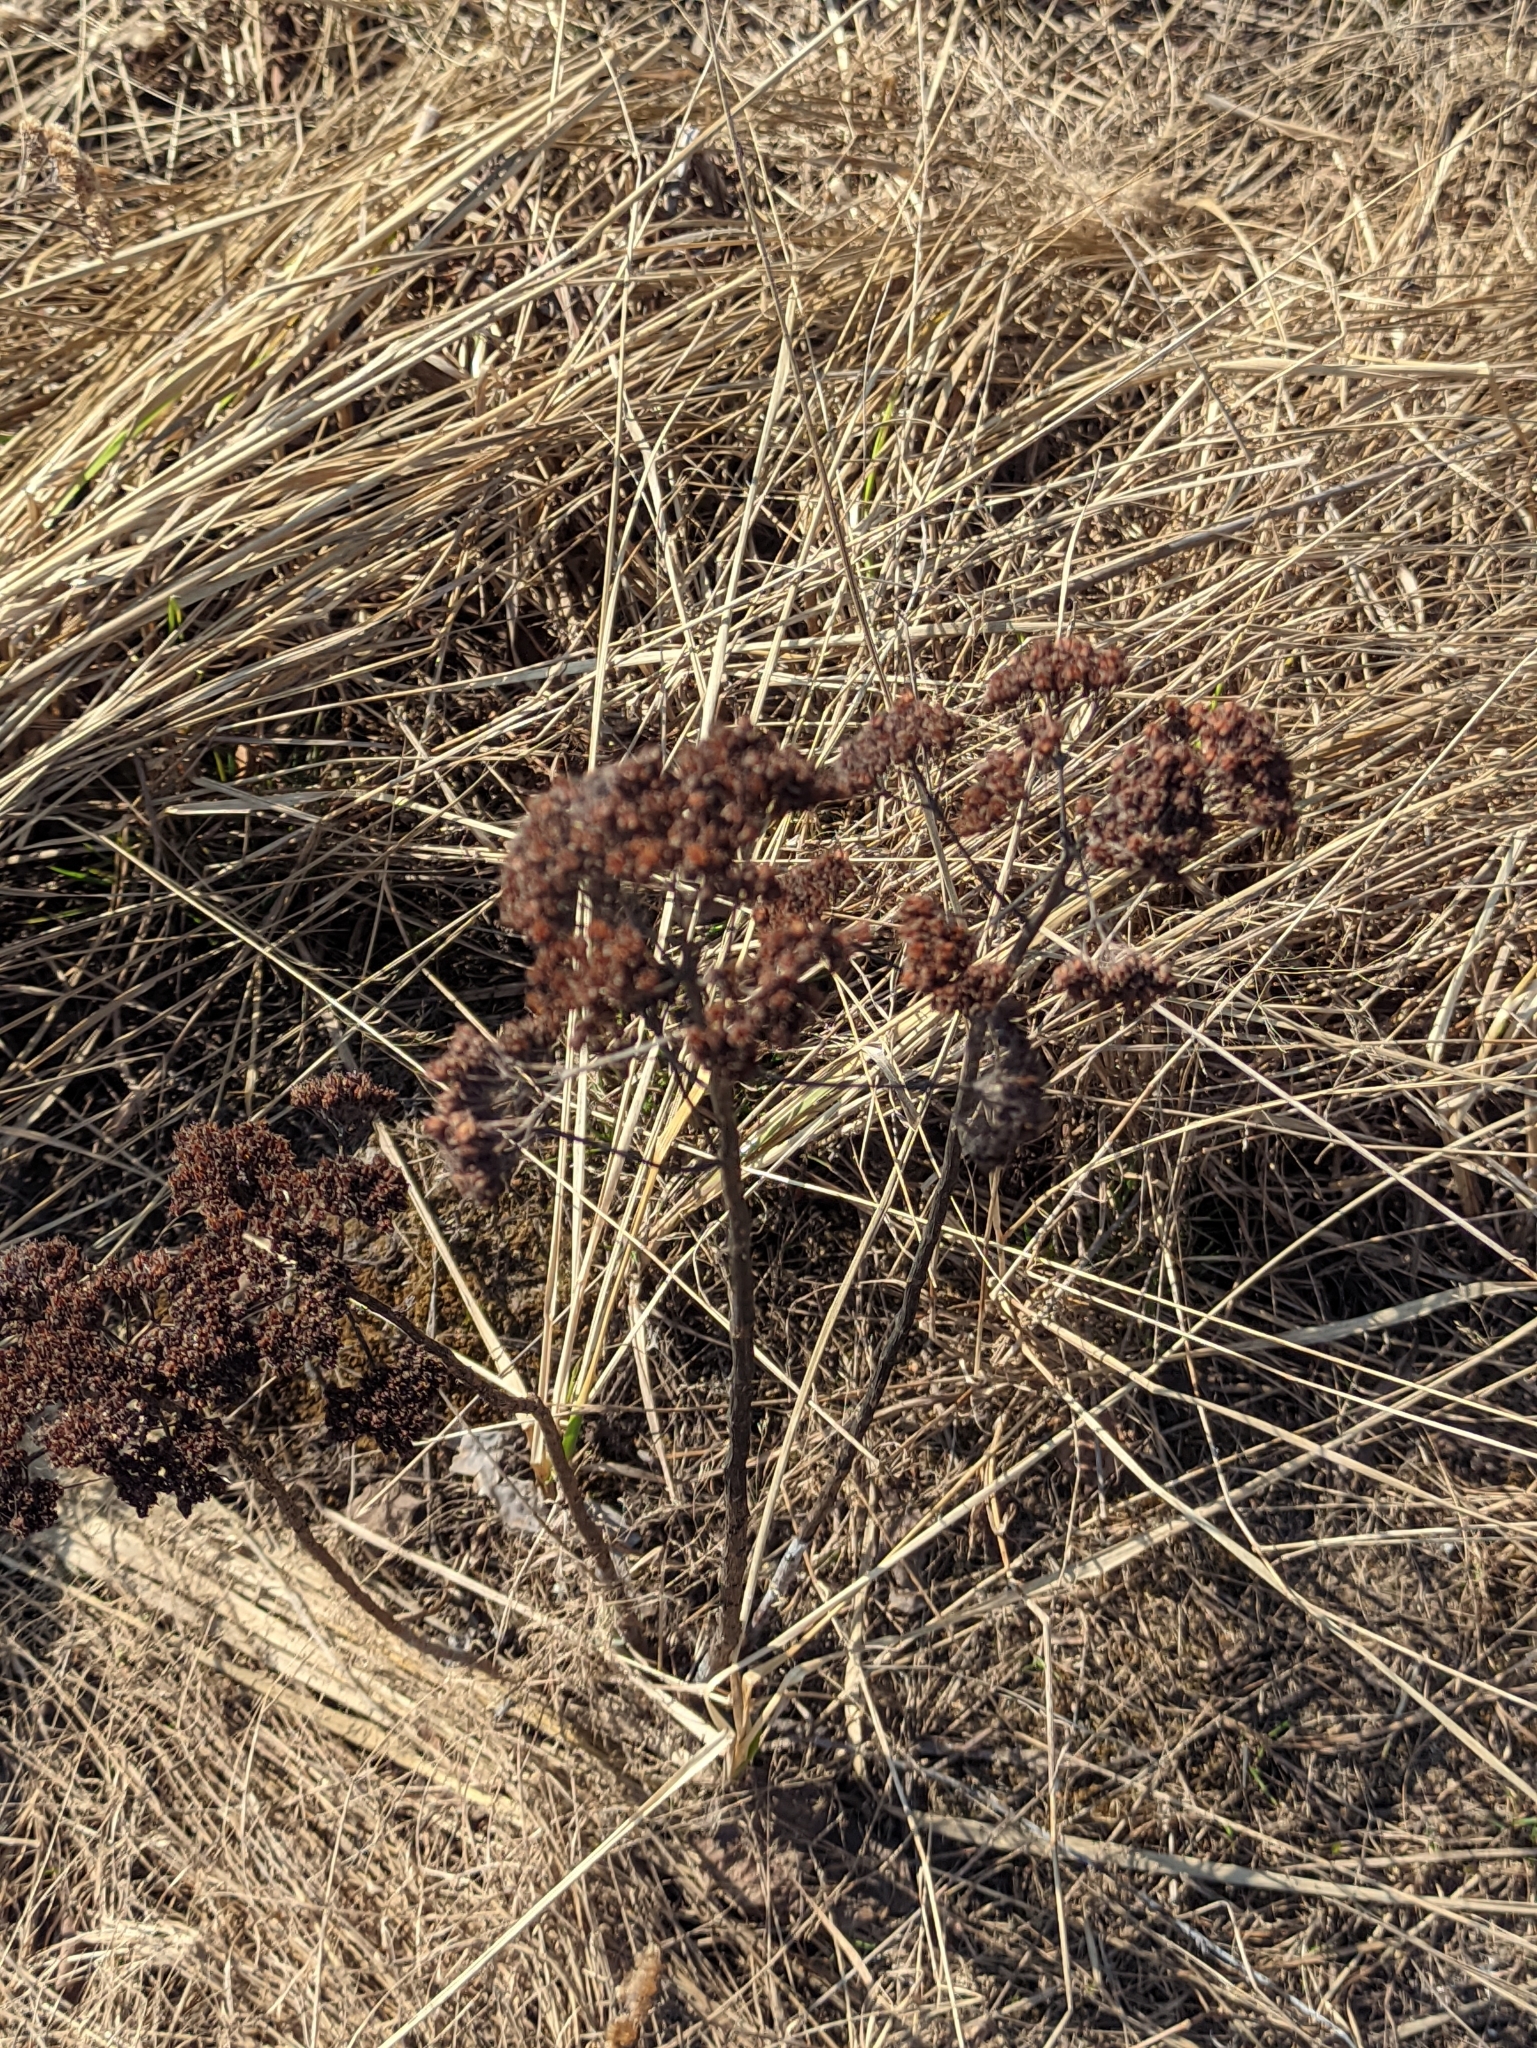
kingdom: Plantae
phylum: Tracheophyta
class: Magnoliopsida
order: Asterales
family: Asteraceae
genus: Achillea
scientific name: Achillea millefolium
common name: Yarrow
